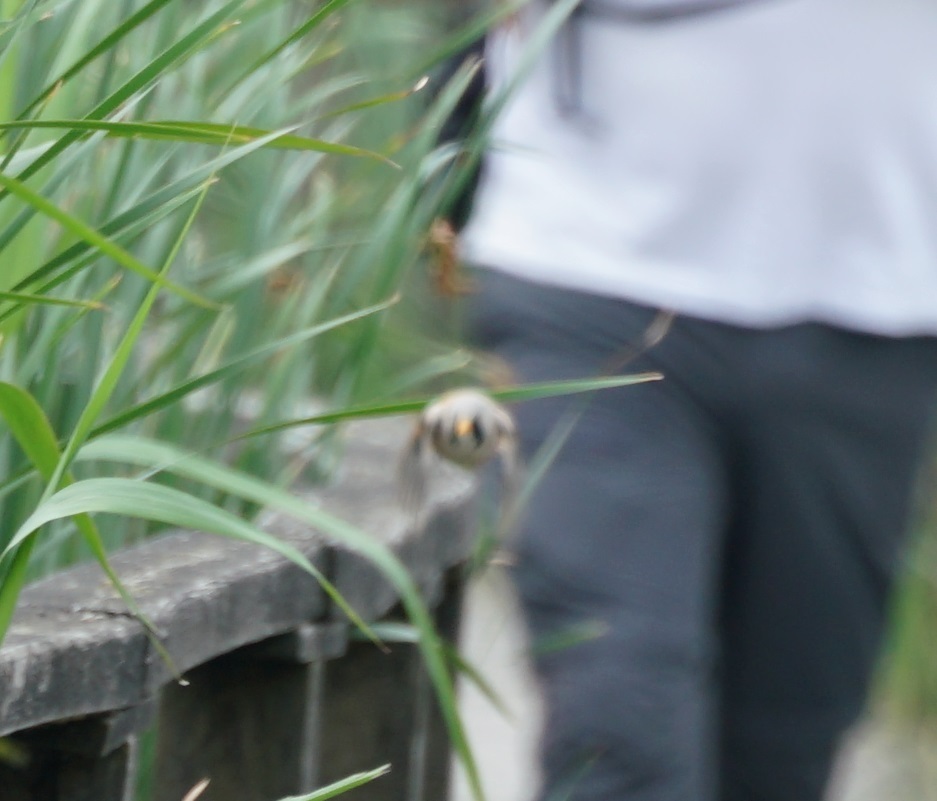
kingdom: Animalia
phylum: Chordata
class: Aves
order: Passeriformes
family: Panuridae
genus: Panurus
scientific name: Panurus biarmicus
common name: Bearded reedling
